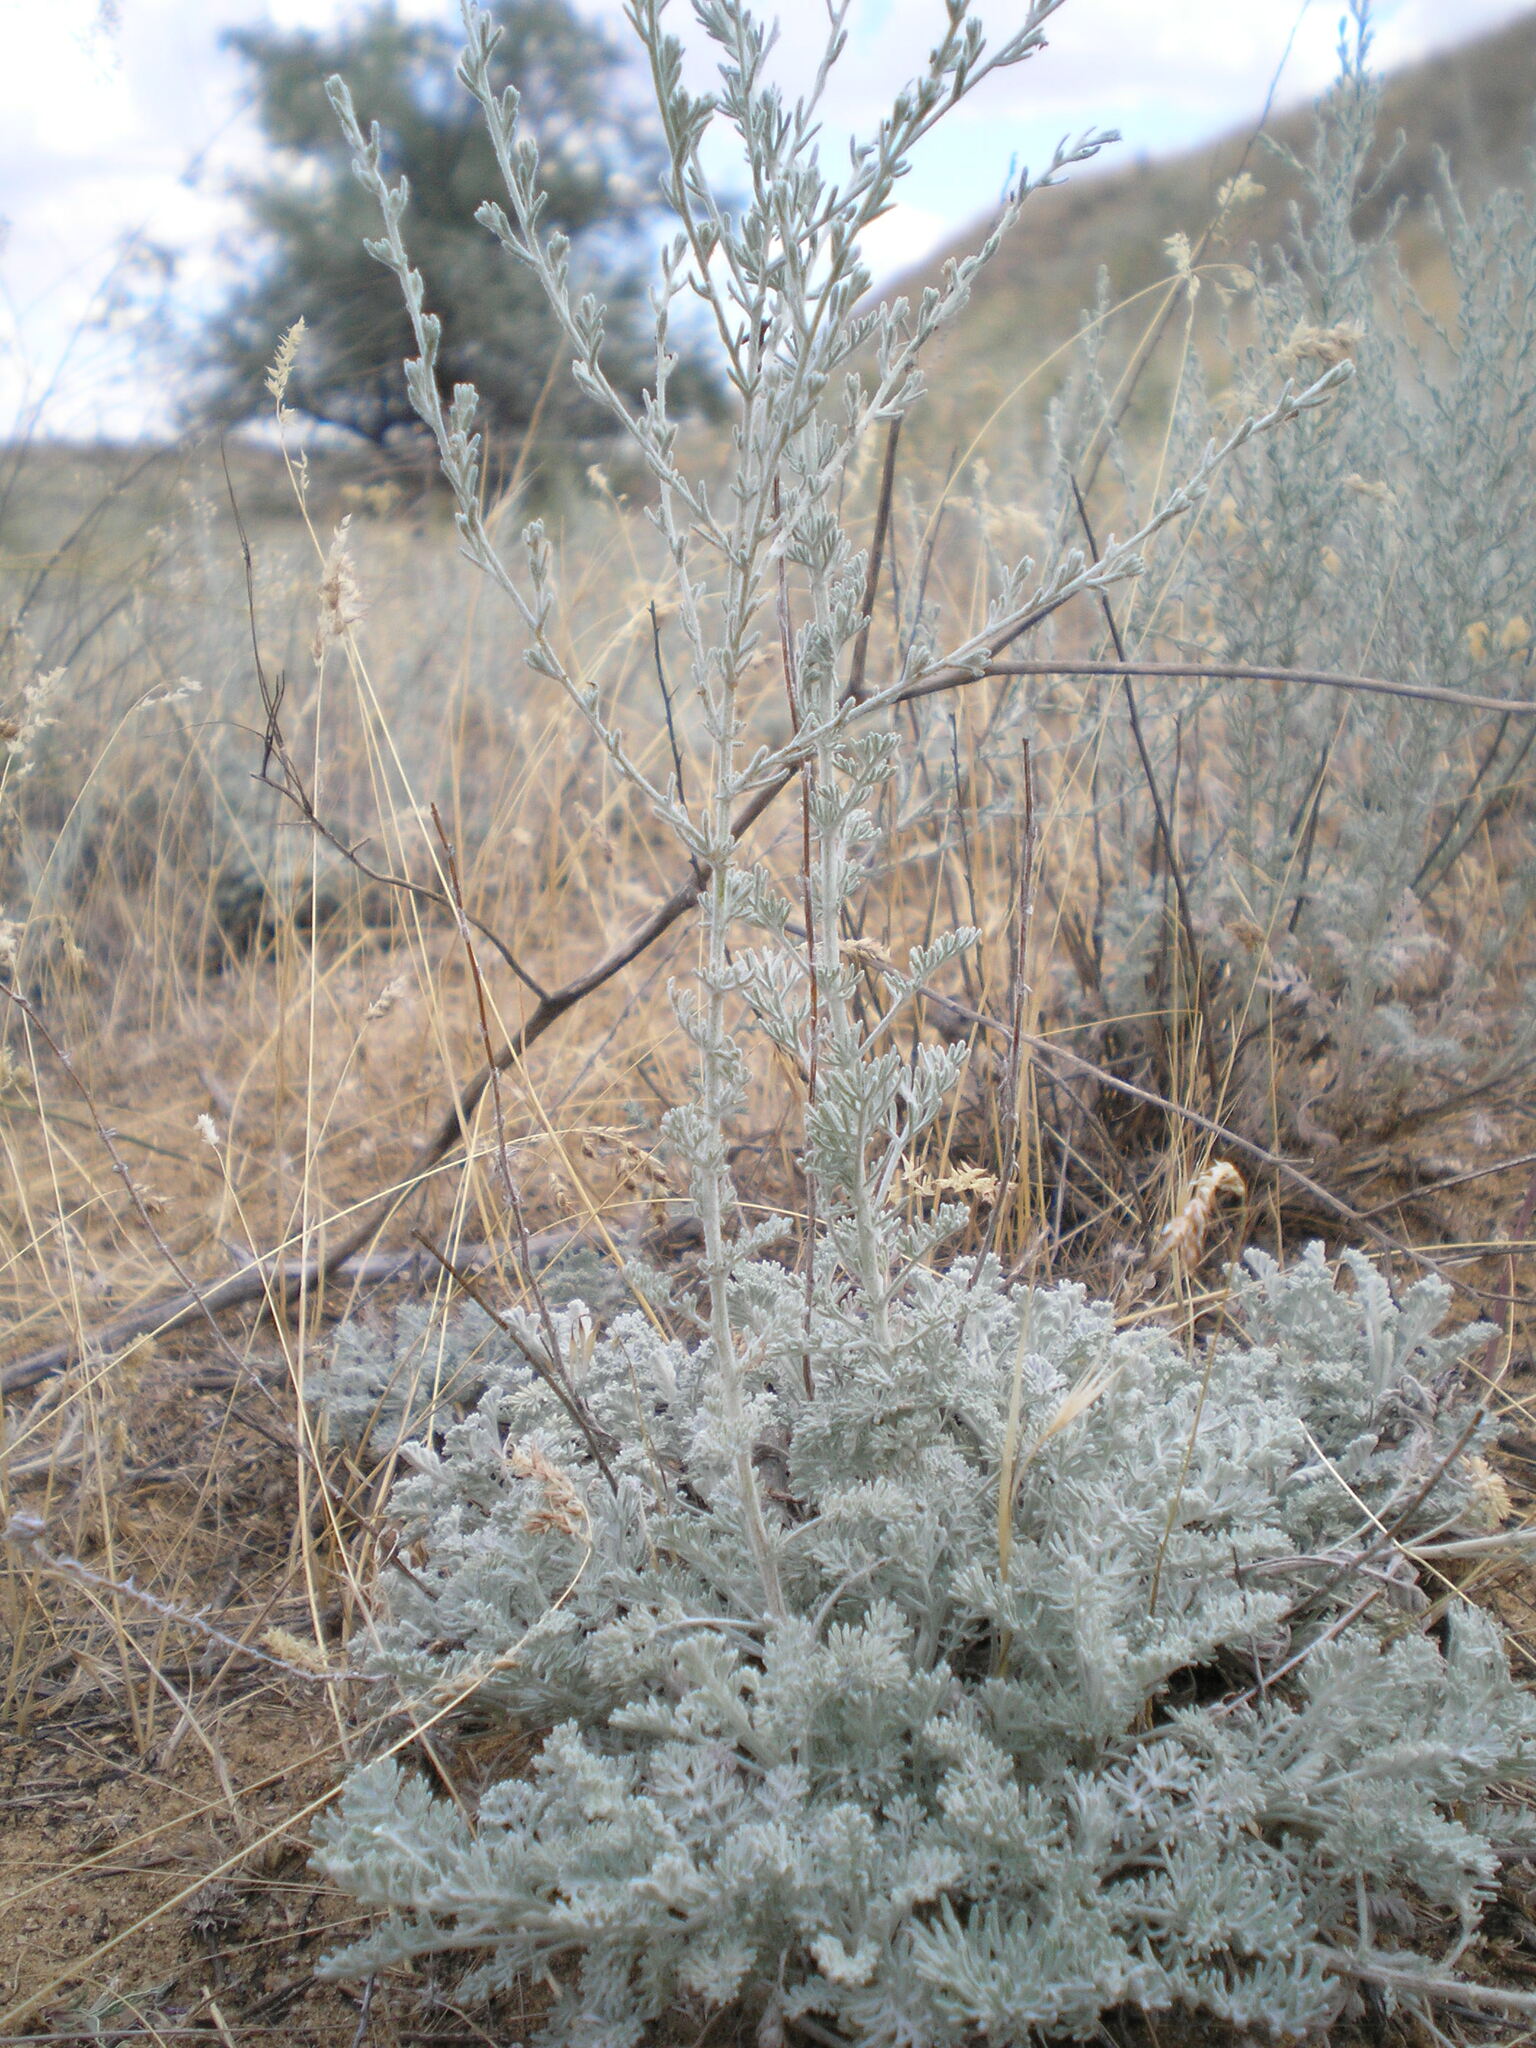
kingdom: Plantae
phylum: Tracheophyta
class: Magnoliopsida
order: Asterales
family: Asteraceae
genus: Artemisia
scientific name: Artemisia fragrans
